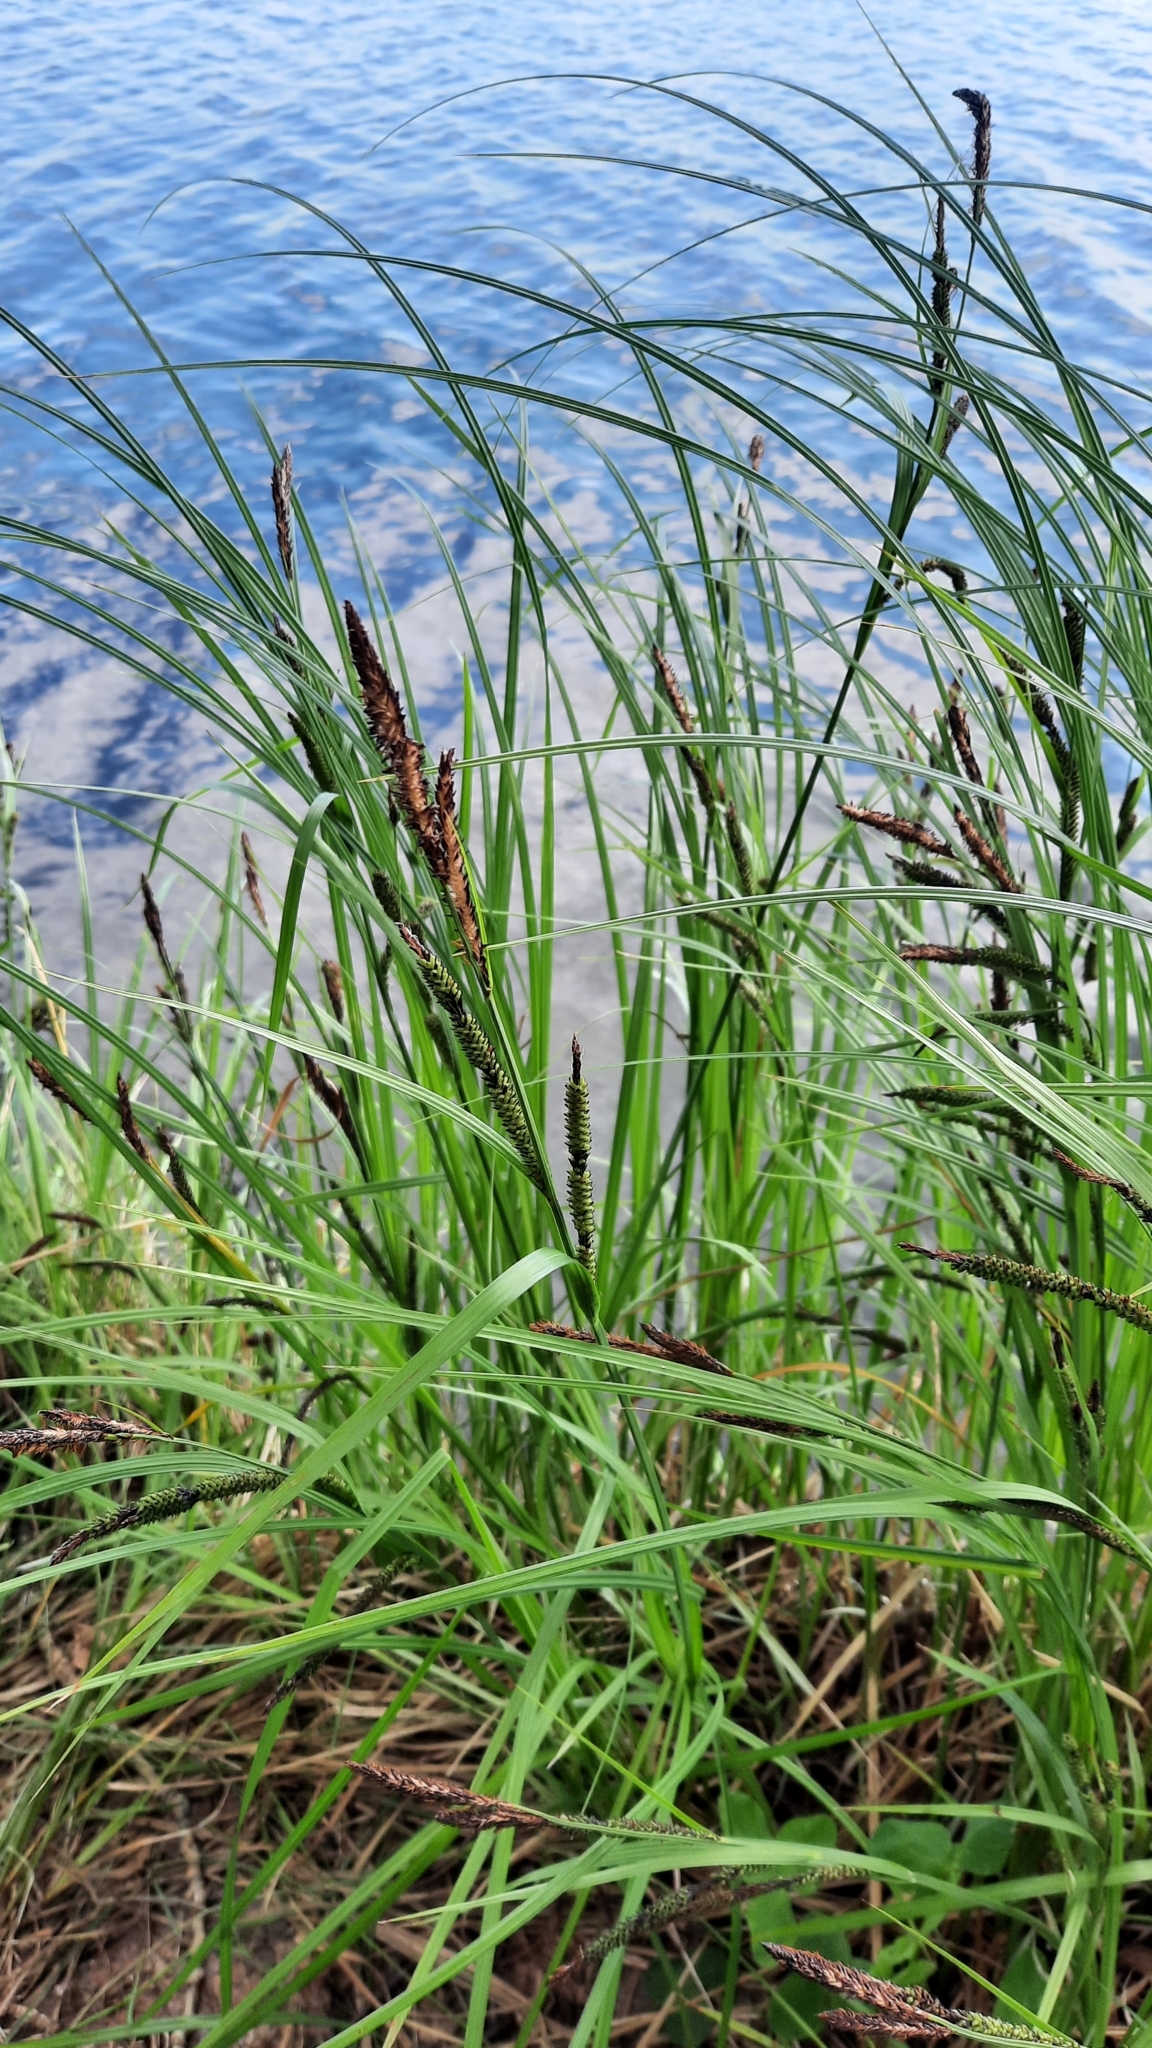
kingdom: Plantae
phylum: Tracheophyta
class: Liliopsida
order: Poales
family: Cyperaceae
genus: Carex
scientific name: Carex acuta
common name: Slender tufted-sedge
